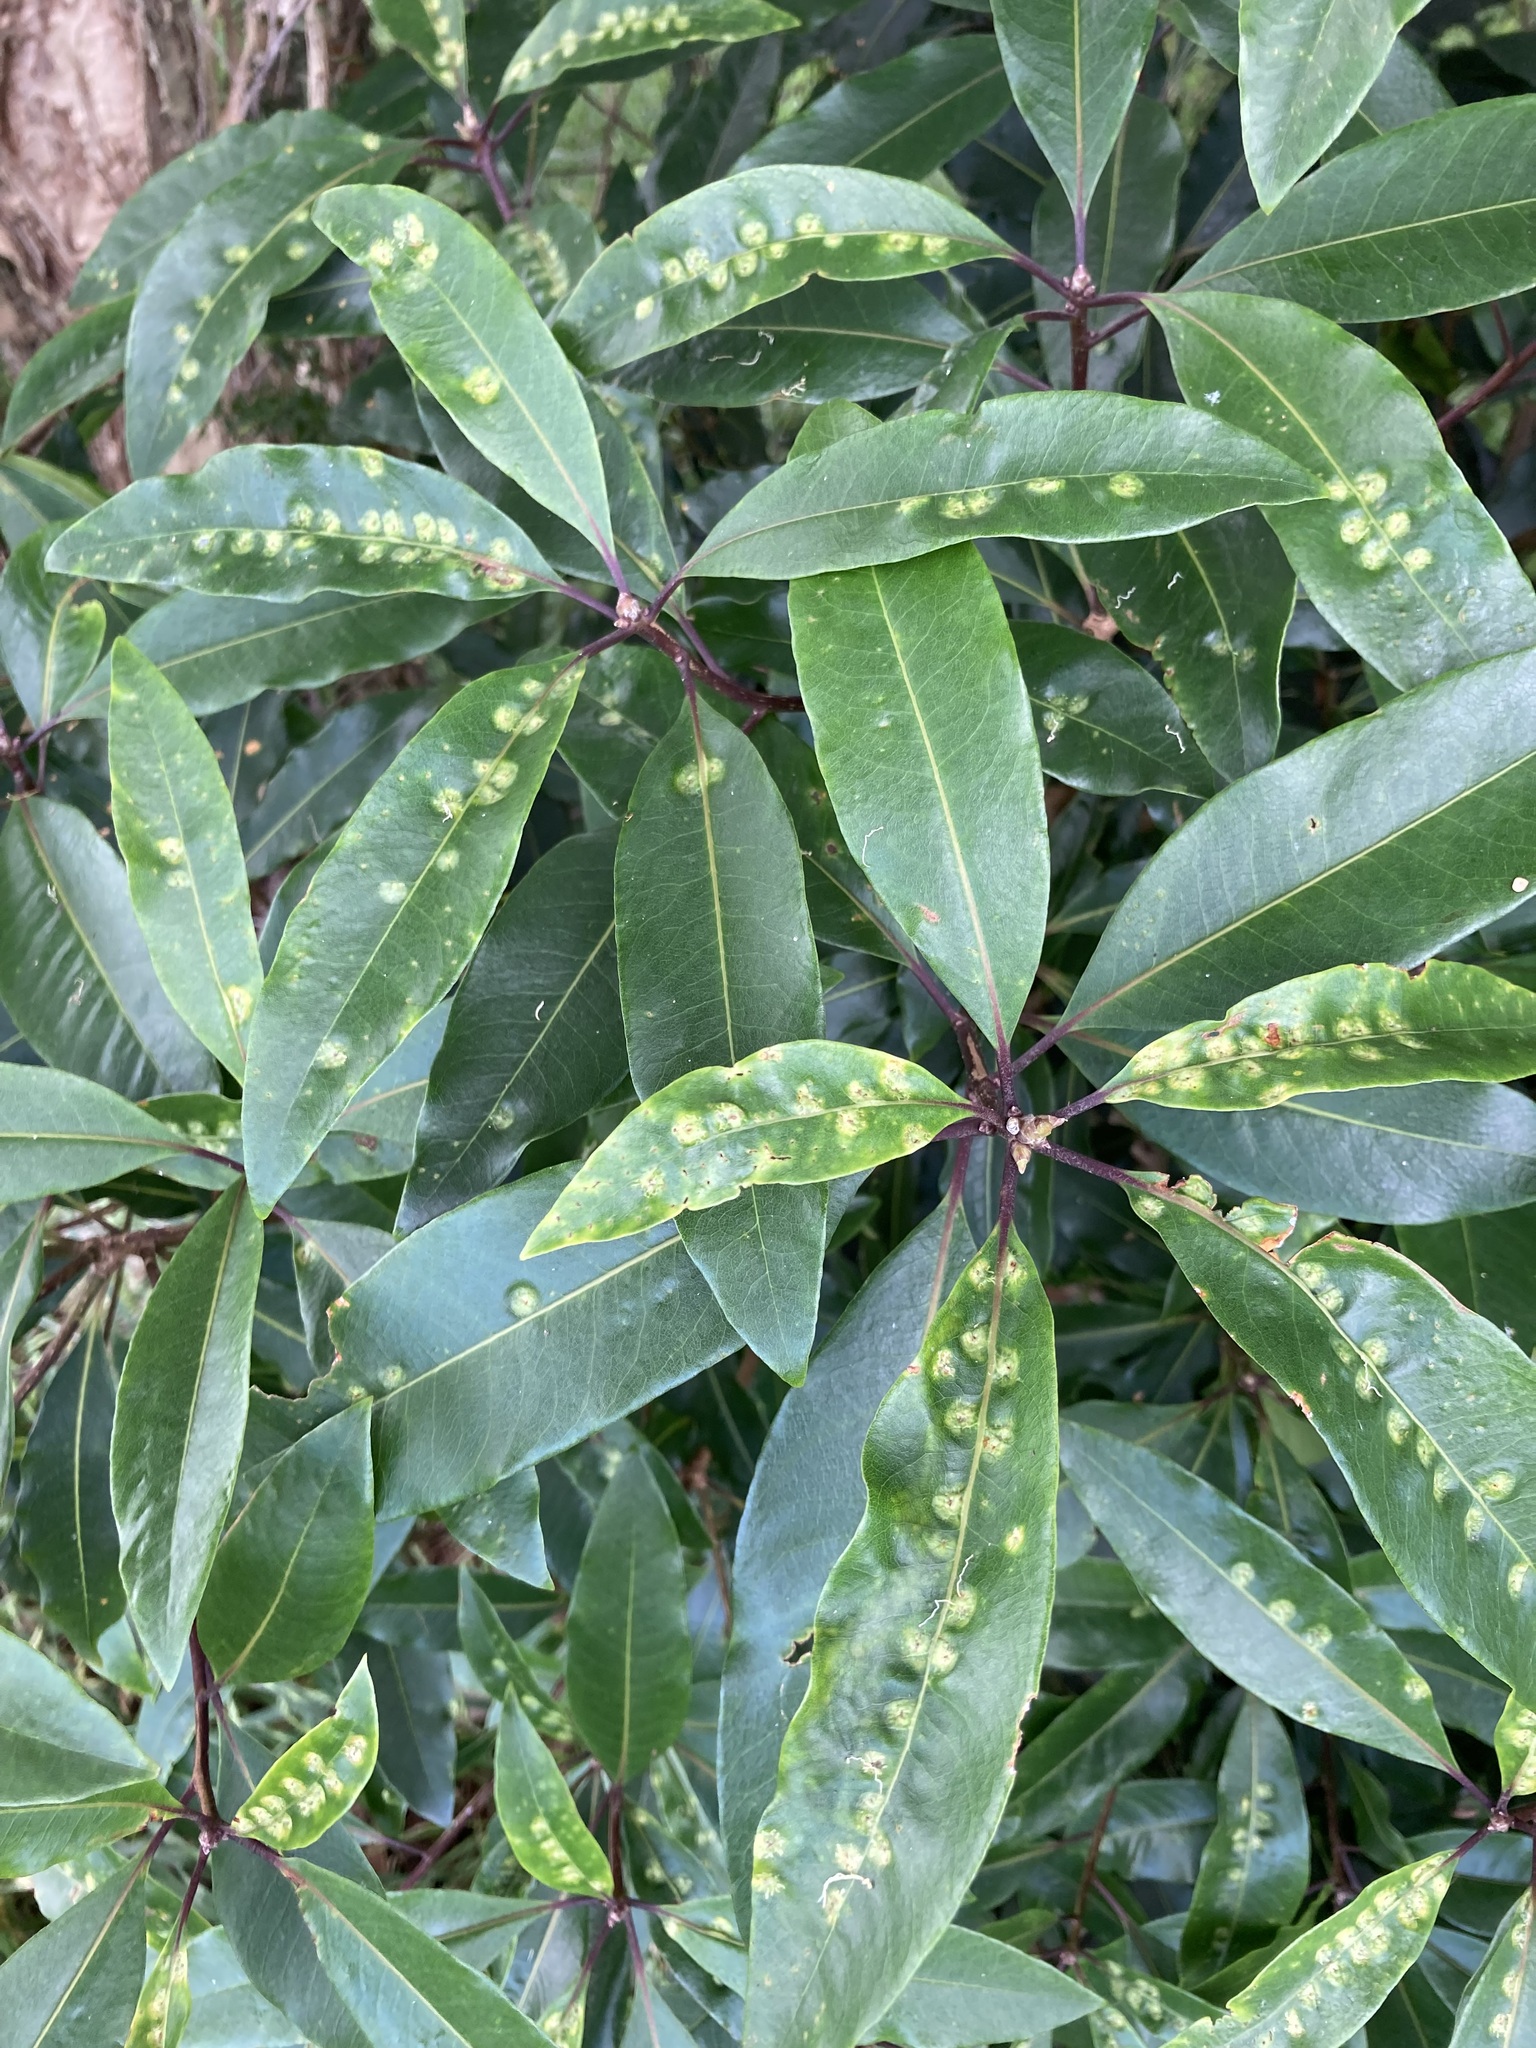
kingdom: Animalia
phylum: Arthropoda
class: Insecta
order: Diptera
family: Agromyzidae
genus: Phytoliriomyza
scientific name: Phytoliriomyza pittosporophylli
